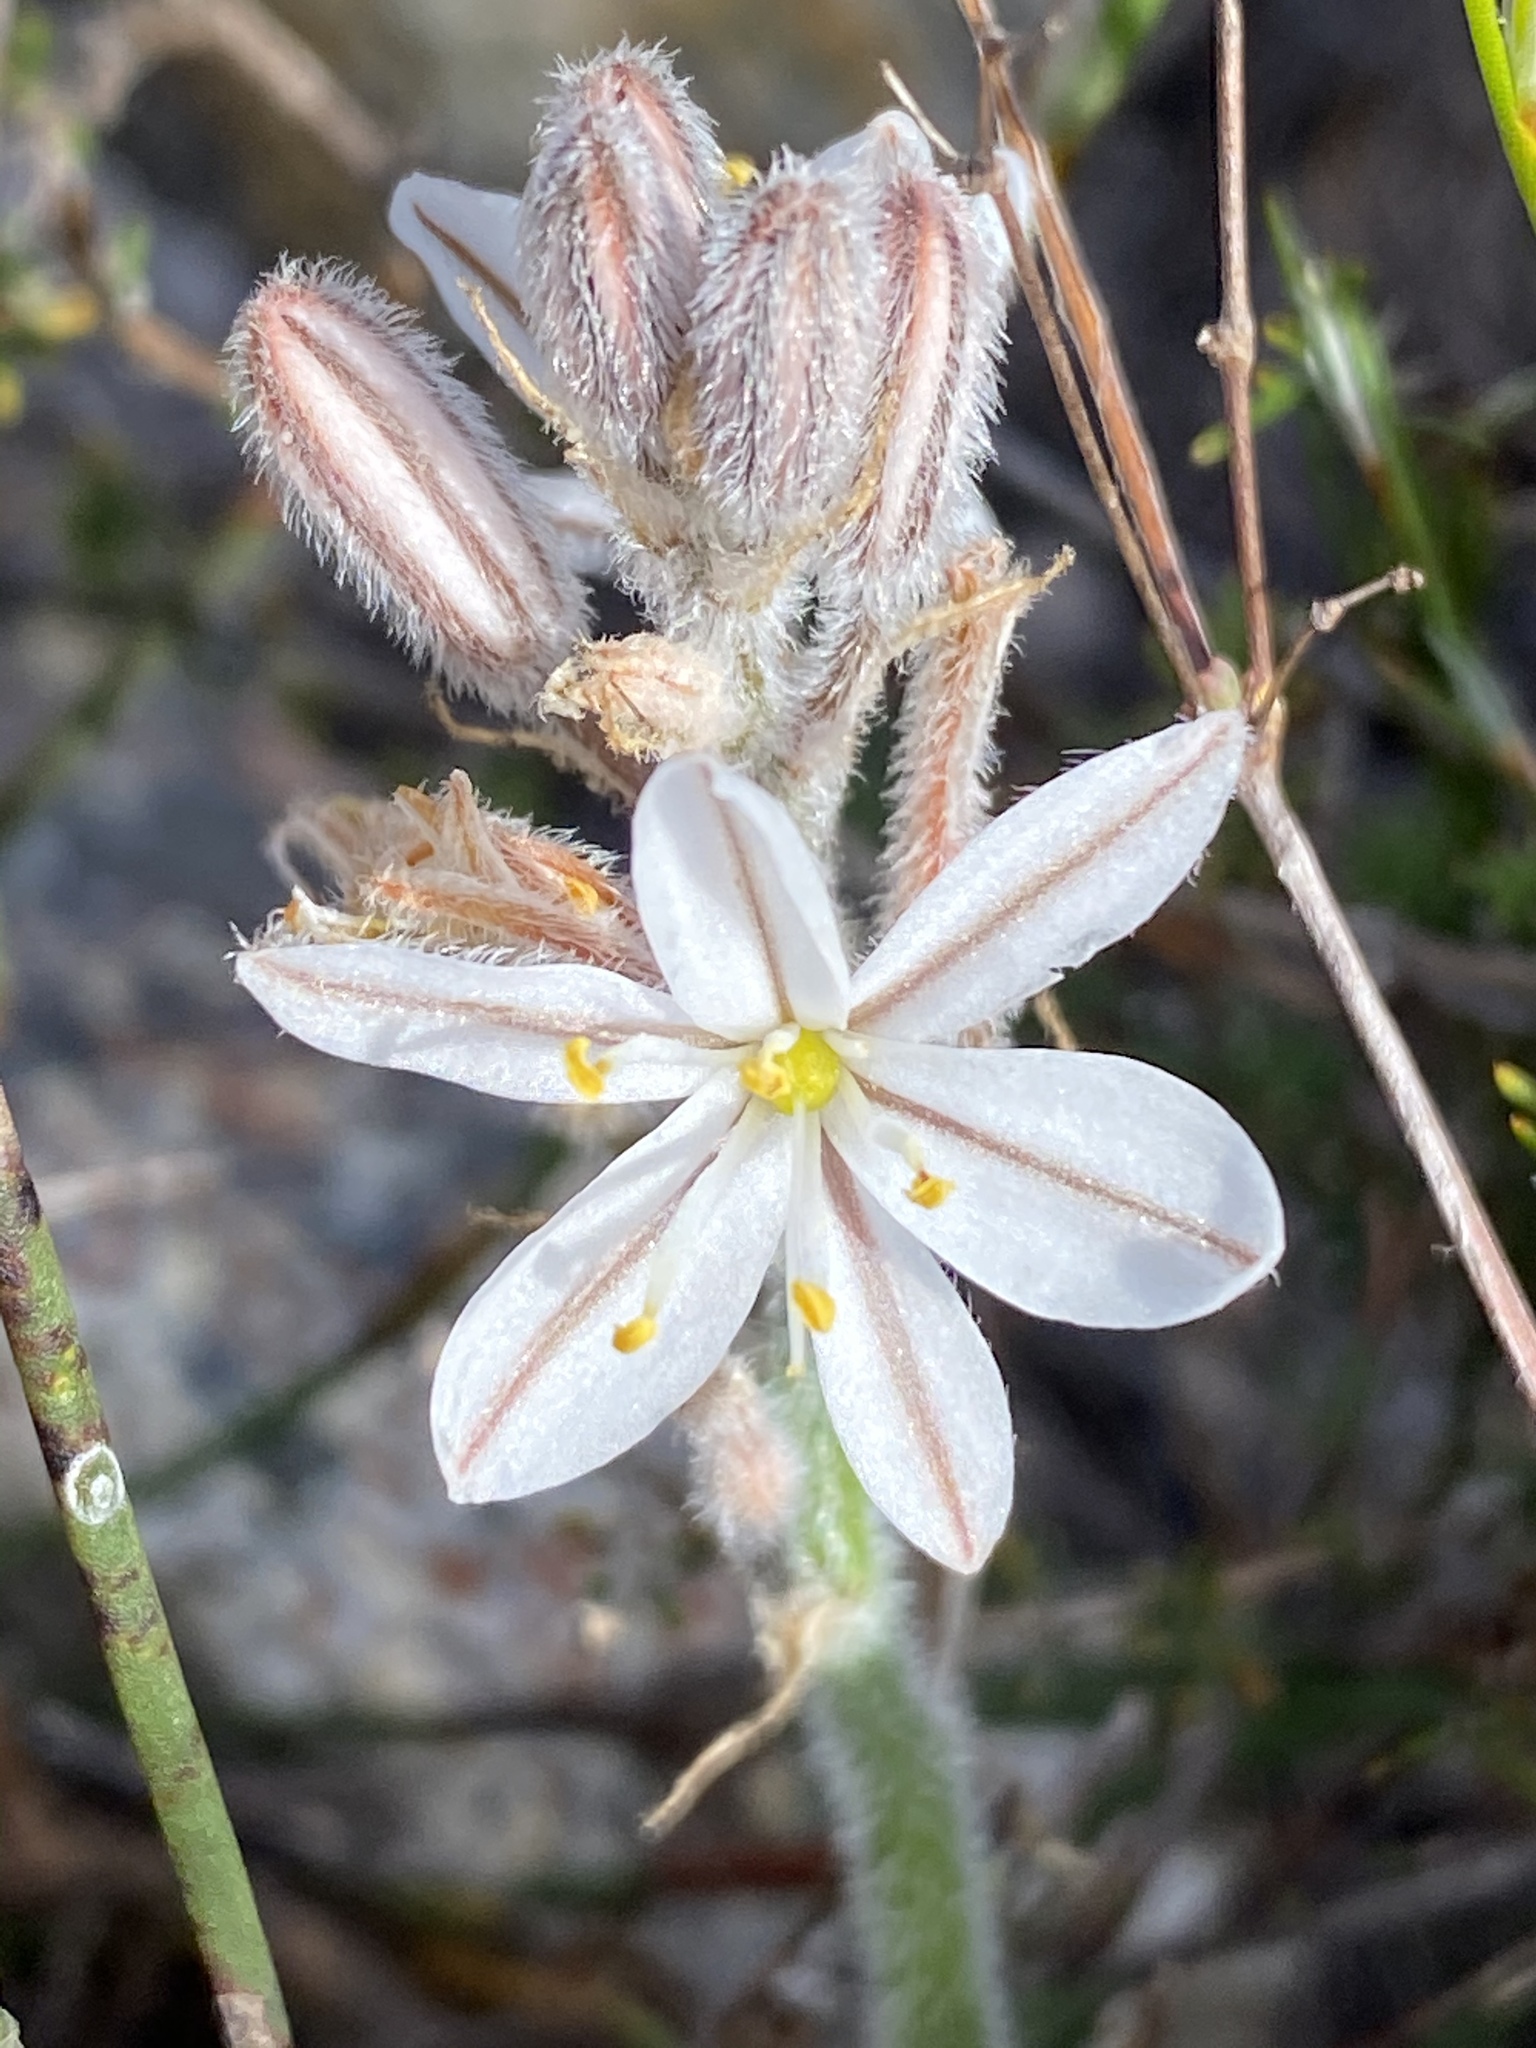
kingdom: Plantae
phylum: Tracheophyta
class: Liliopsida
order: Asparagales
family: Asphodelaceae
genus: Trachyandra
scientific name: Trachyandra hirsutiflora
